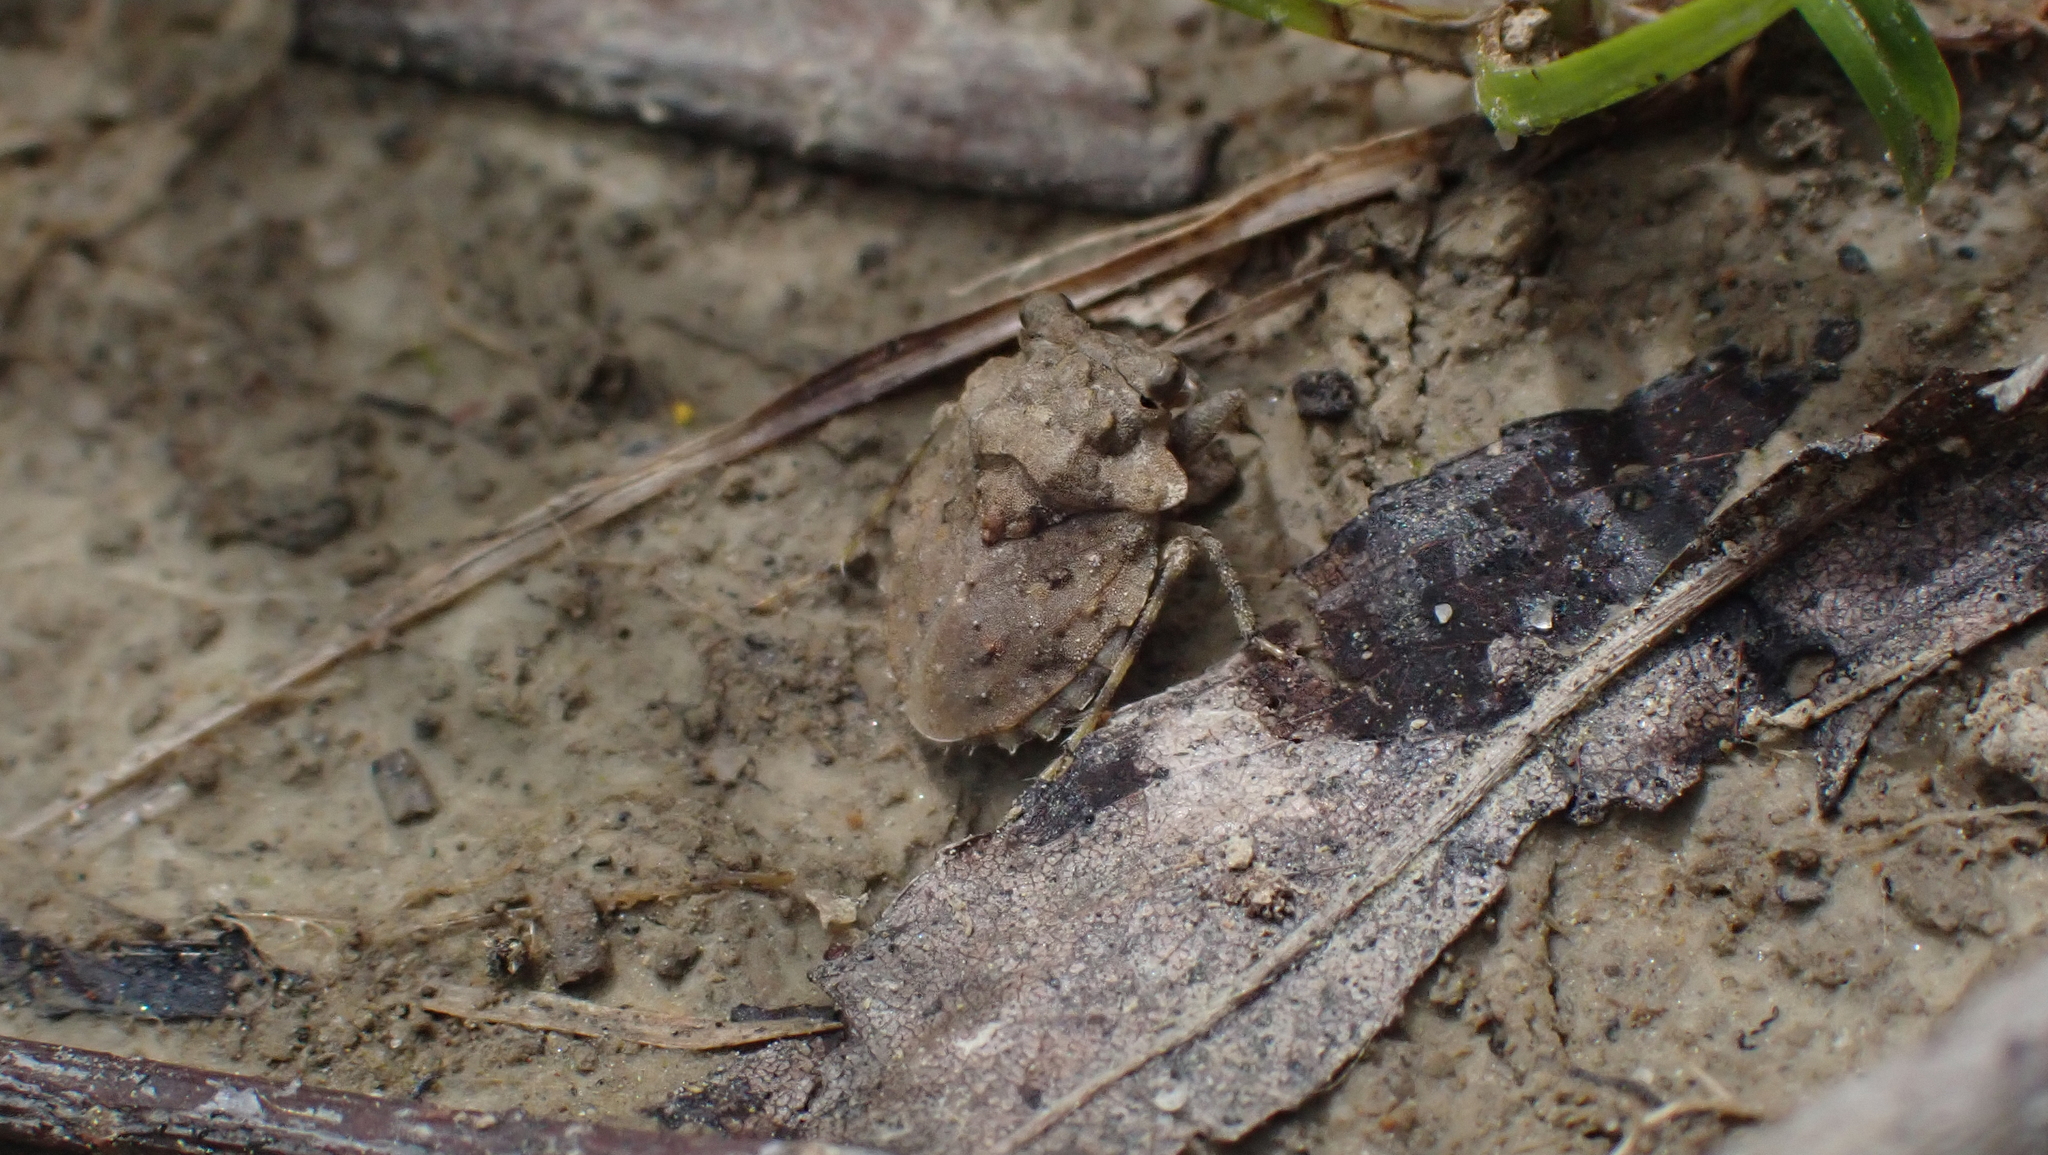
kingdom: Animalia
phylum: Arthropoda
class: Insecta
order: Hemiptera
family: Gelastocoridae
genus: Gelastocoris
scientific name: Gelastocoris oculatus
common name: Toad bug
